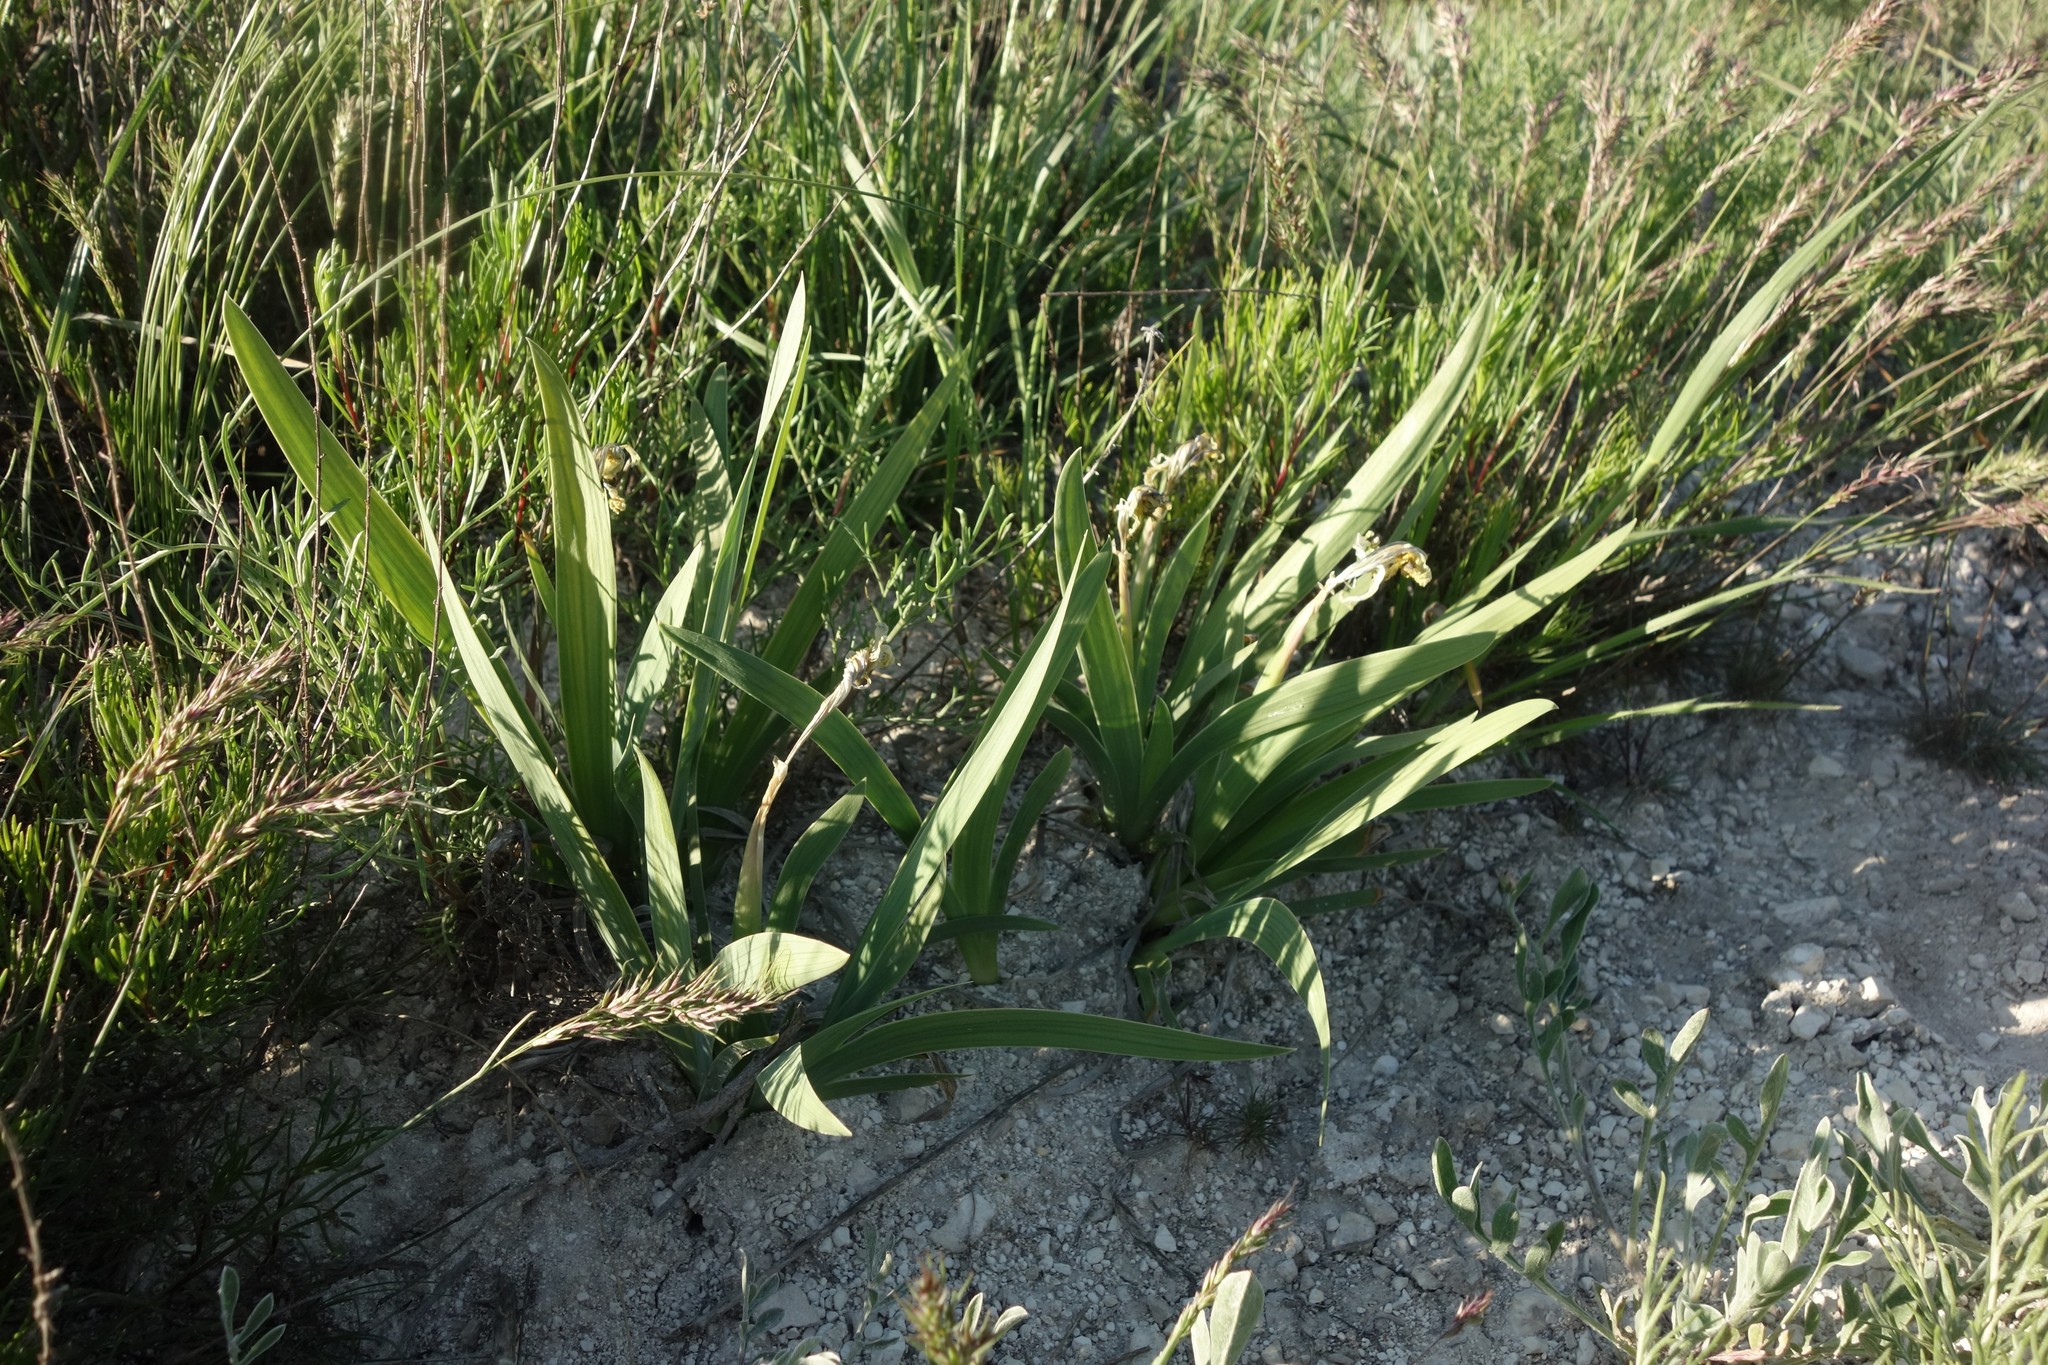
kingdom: Plantae
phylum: Tracheophyta
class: Liliopsida
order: Asparagales
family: Iridaceae
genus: Iris
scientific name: Iris pumila
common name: Dwarf iris
